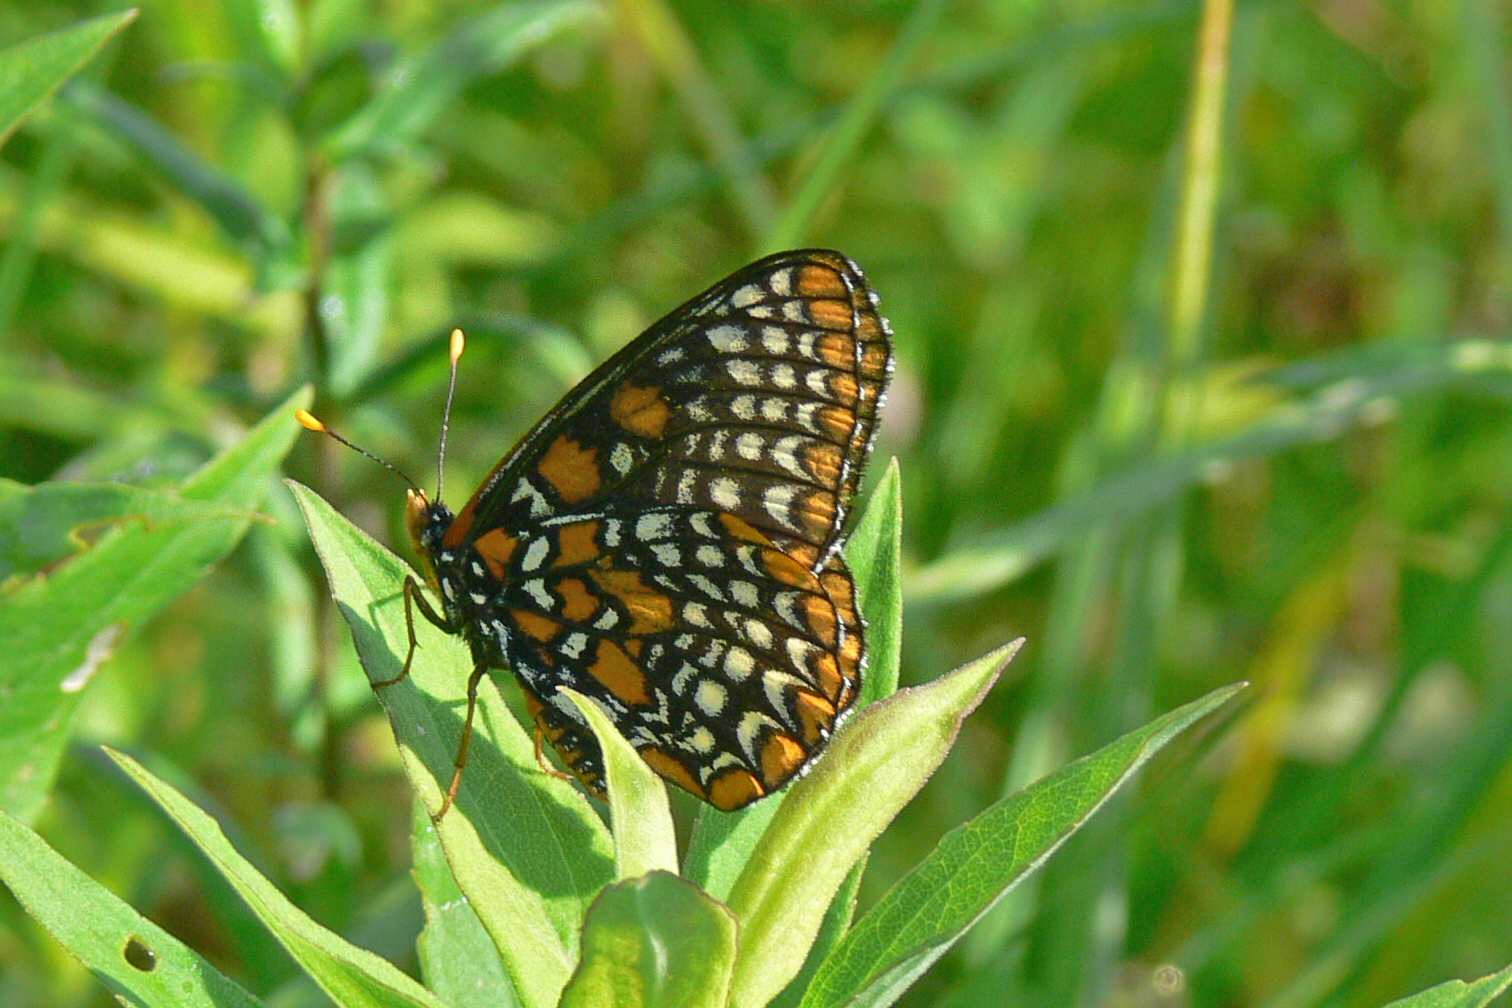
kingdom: Animalia
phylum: Arthropoda
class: Insecta
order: Lepidoptera
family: Nymphalidae
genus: Euphydryas
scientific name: Euphydryas phaeton
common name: Baltimore checkerspot
